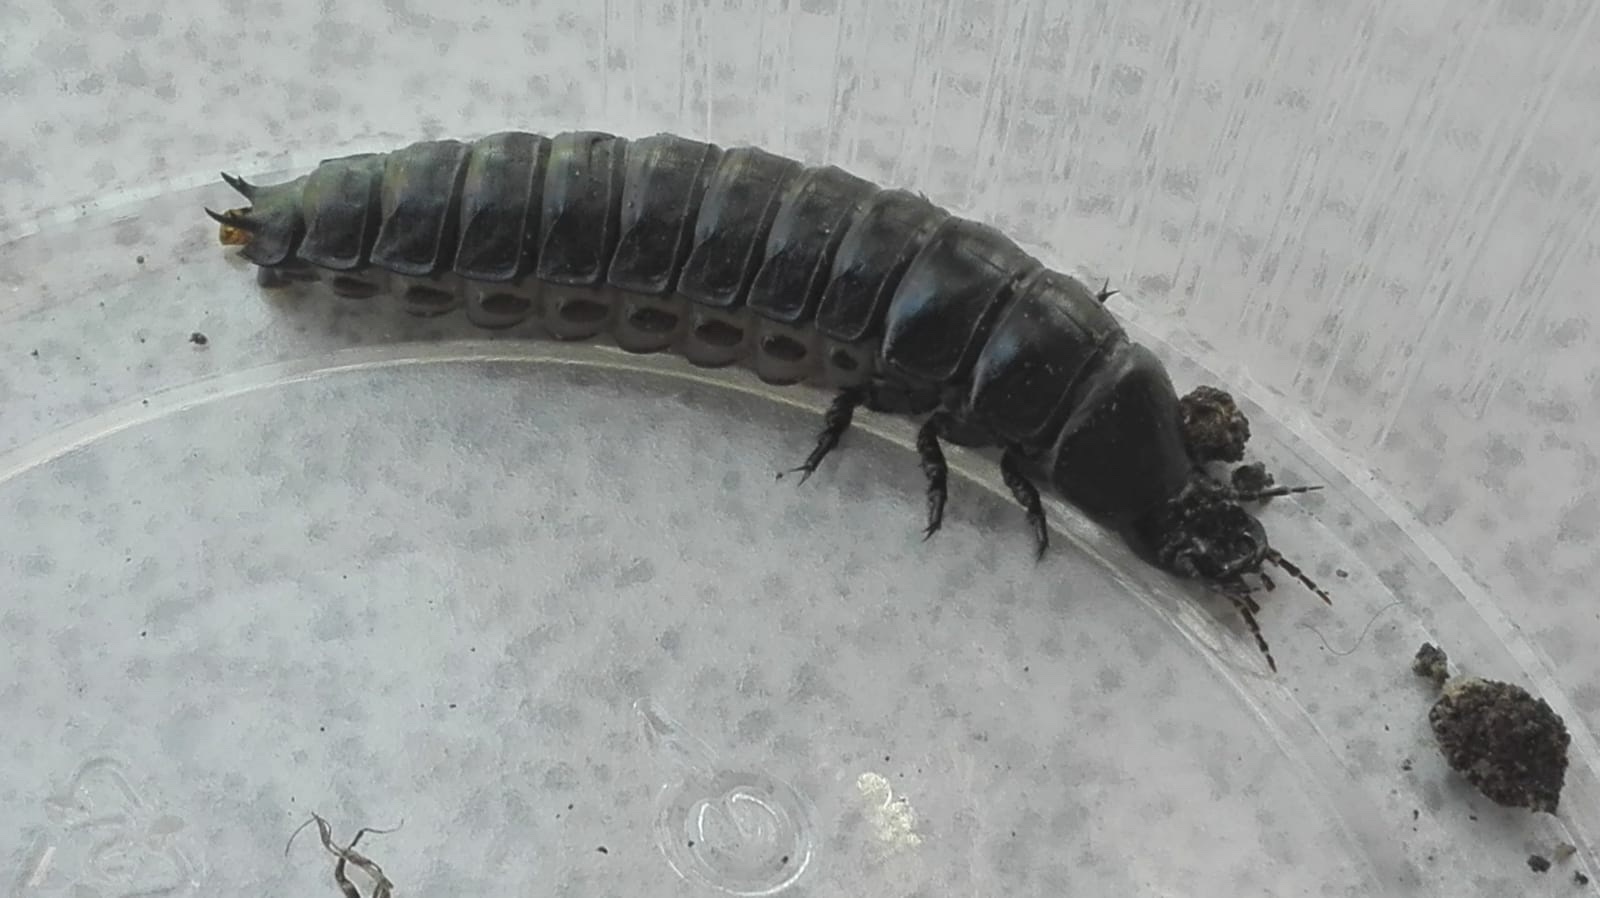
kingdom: Animalia
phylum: Arthropoda
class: Insecta
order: Coleoptera
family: Carabidae
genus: Carabus
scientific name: Carabus
